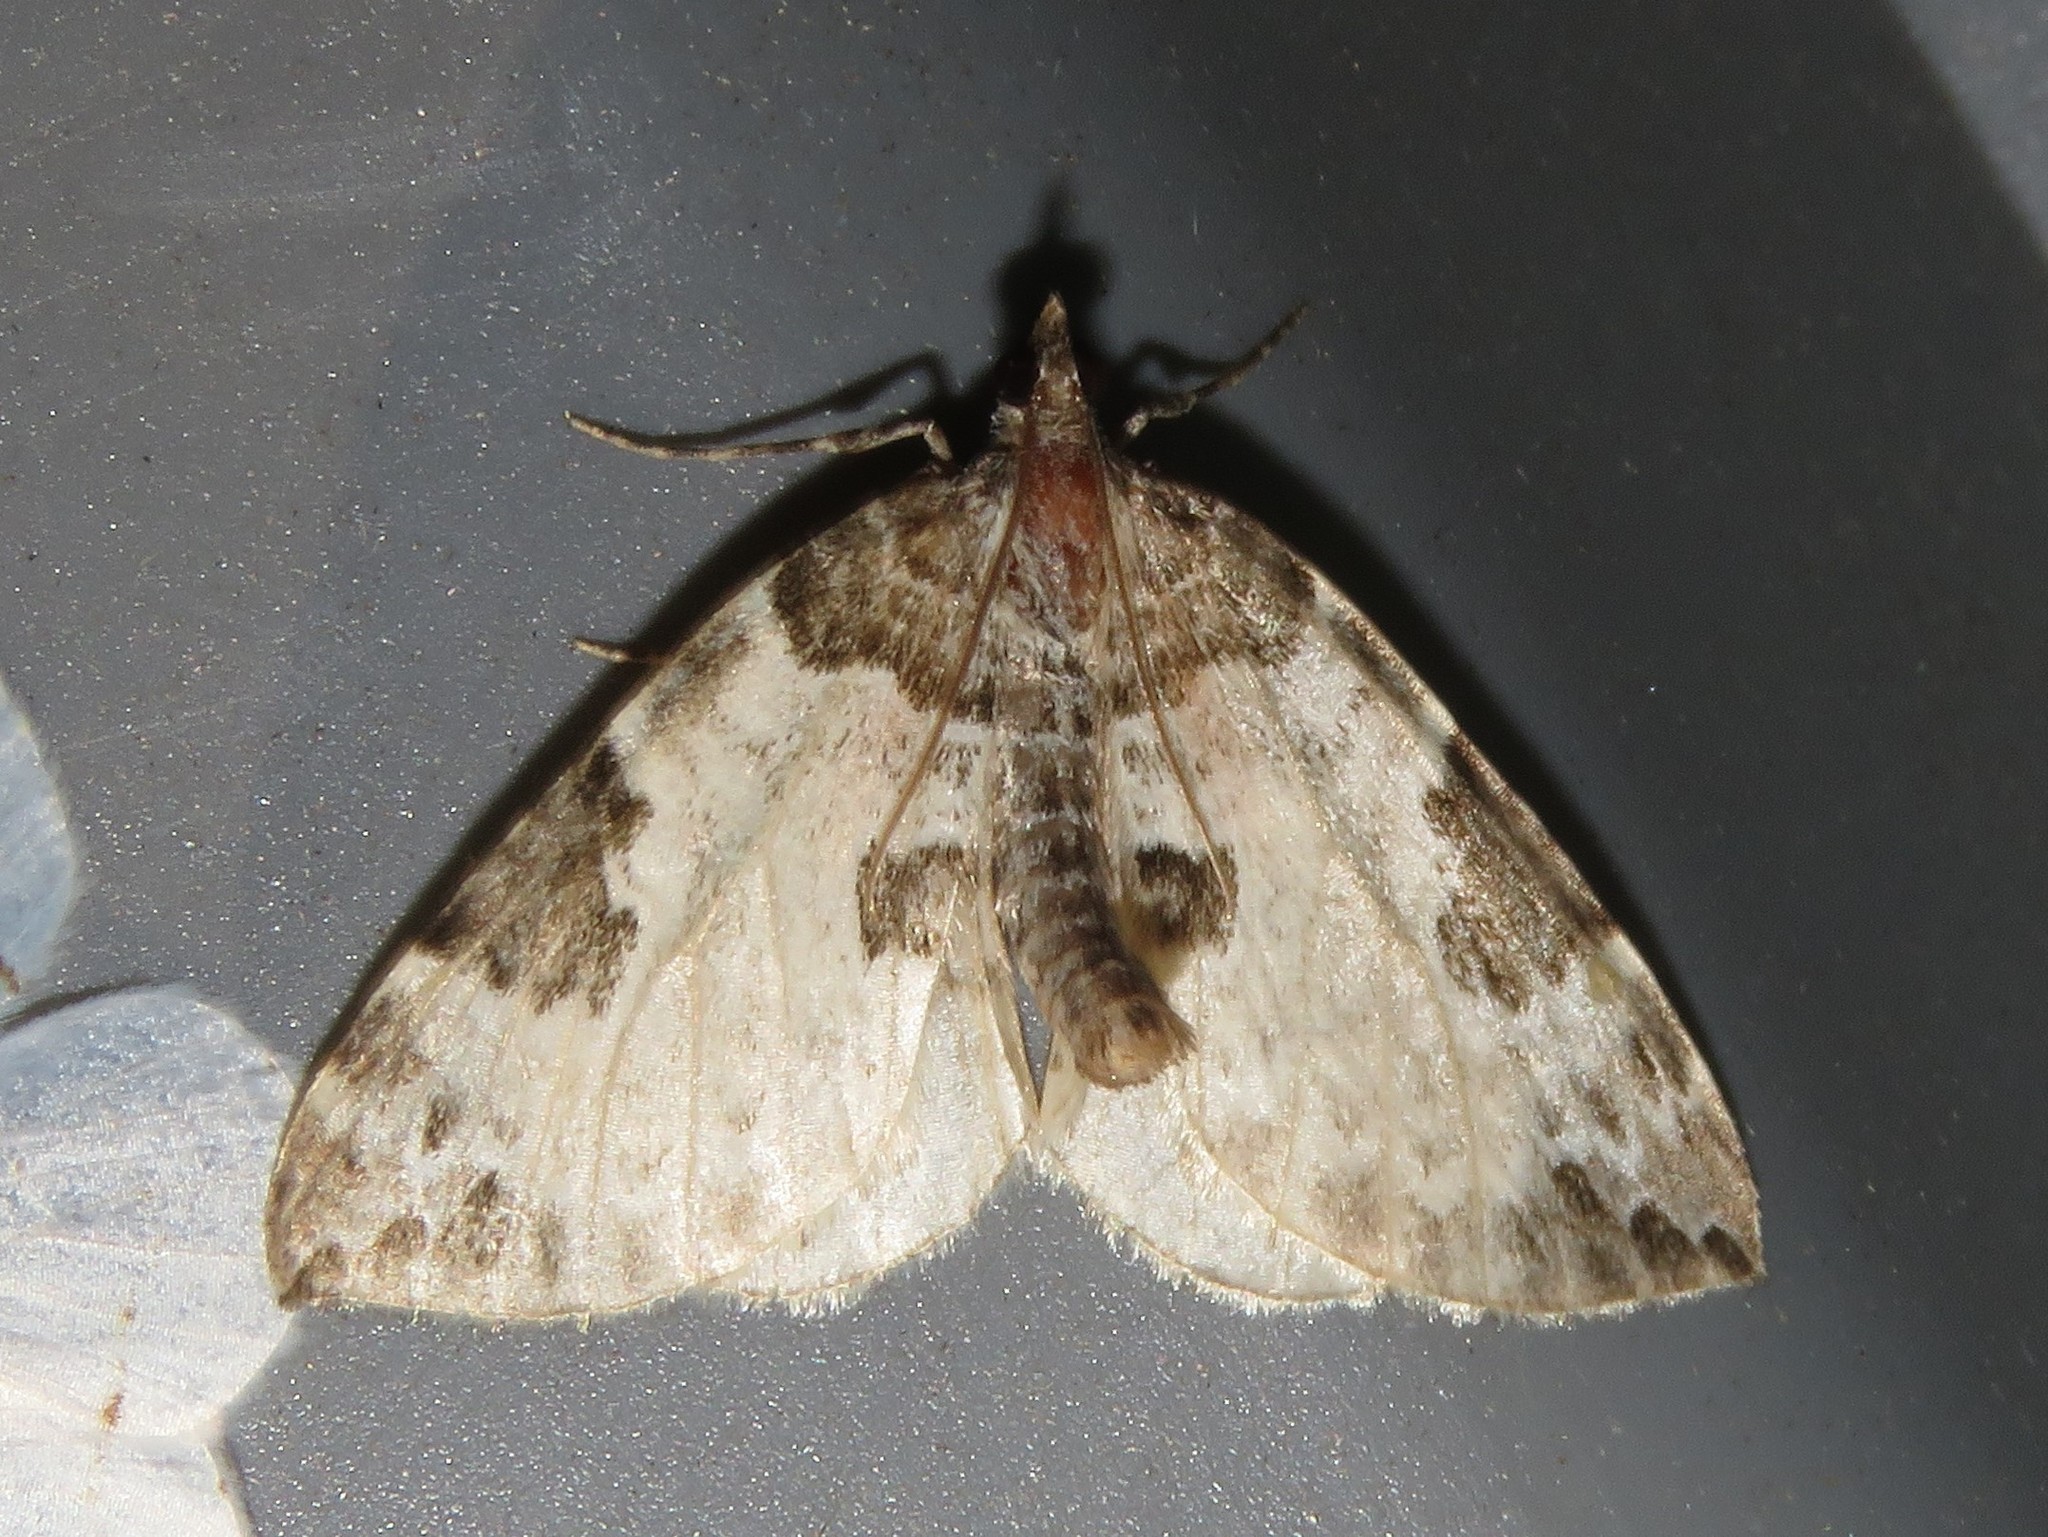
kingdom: Animalia
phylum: Arthropoda
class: Insecta
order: Lepidoptera
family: Geometridae
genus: Eulithis
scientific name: Eulithis explanata
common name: White eulithis
